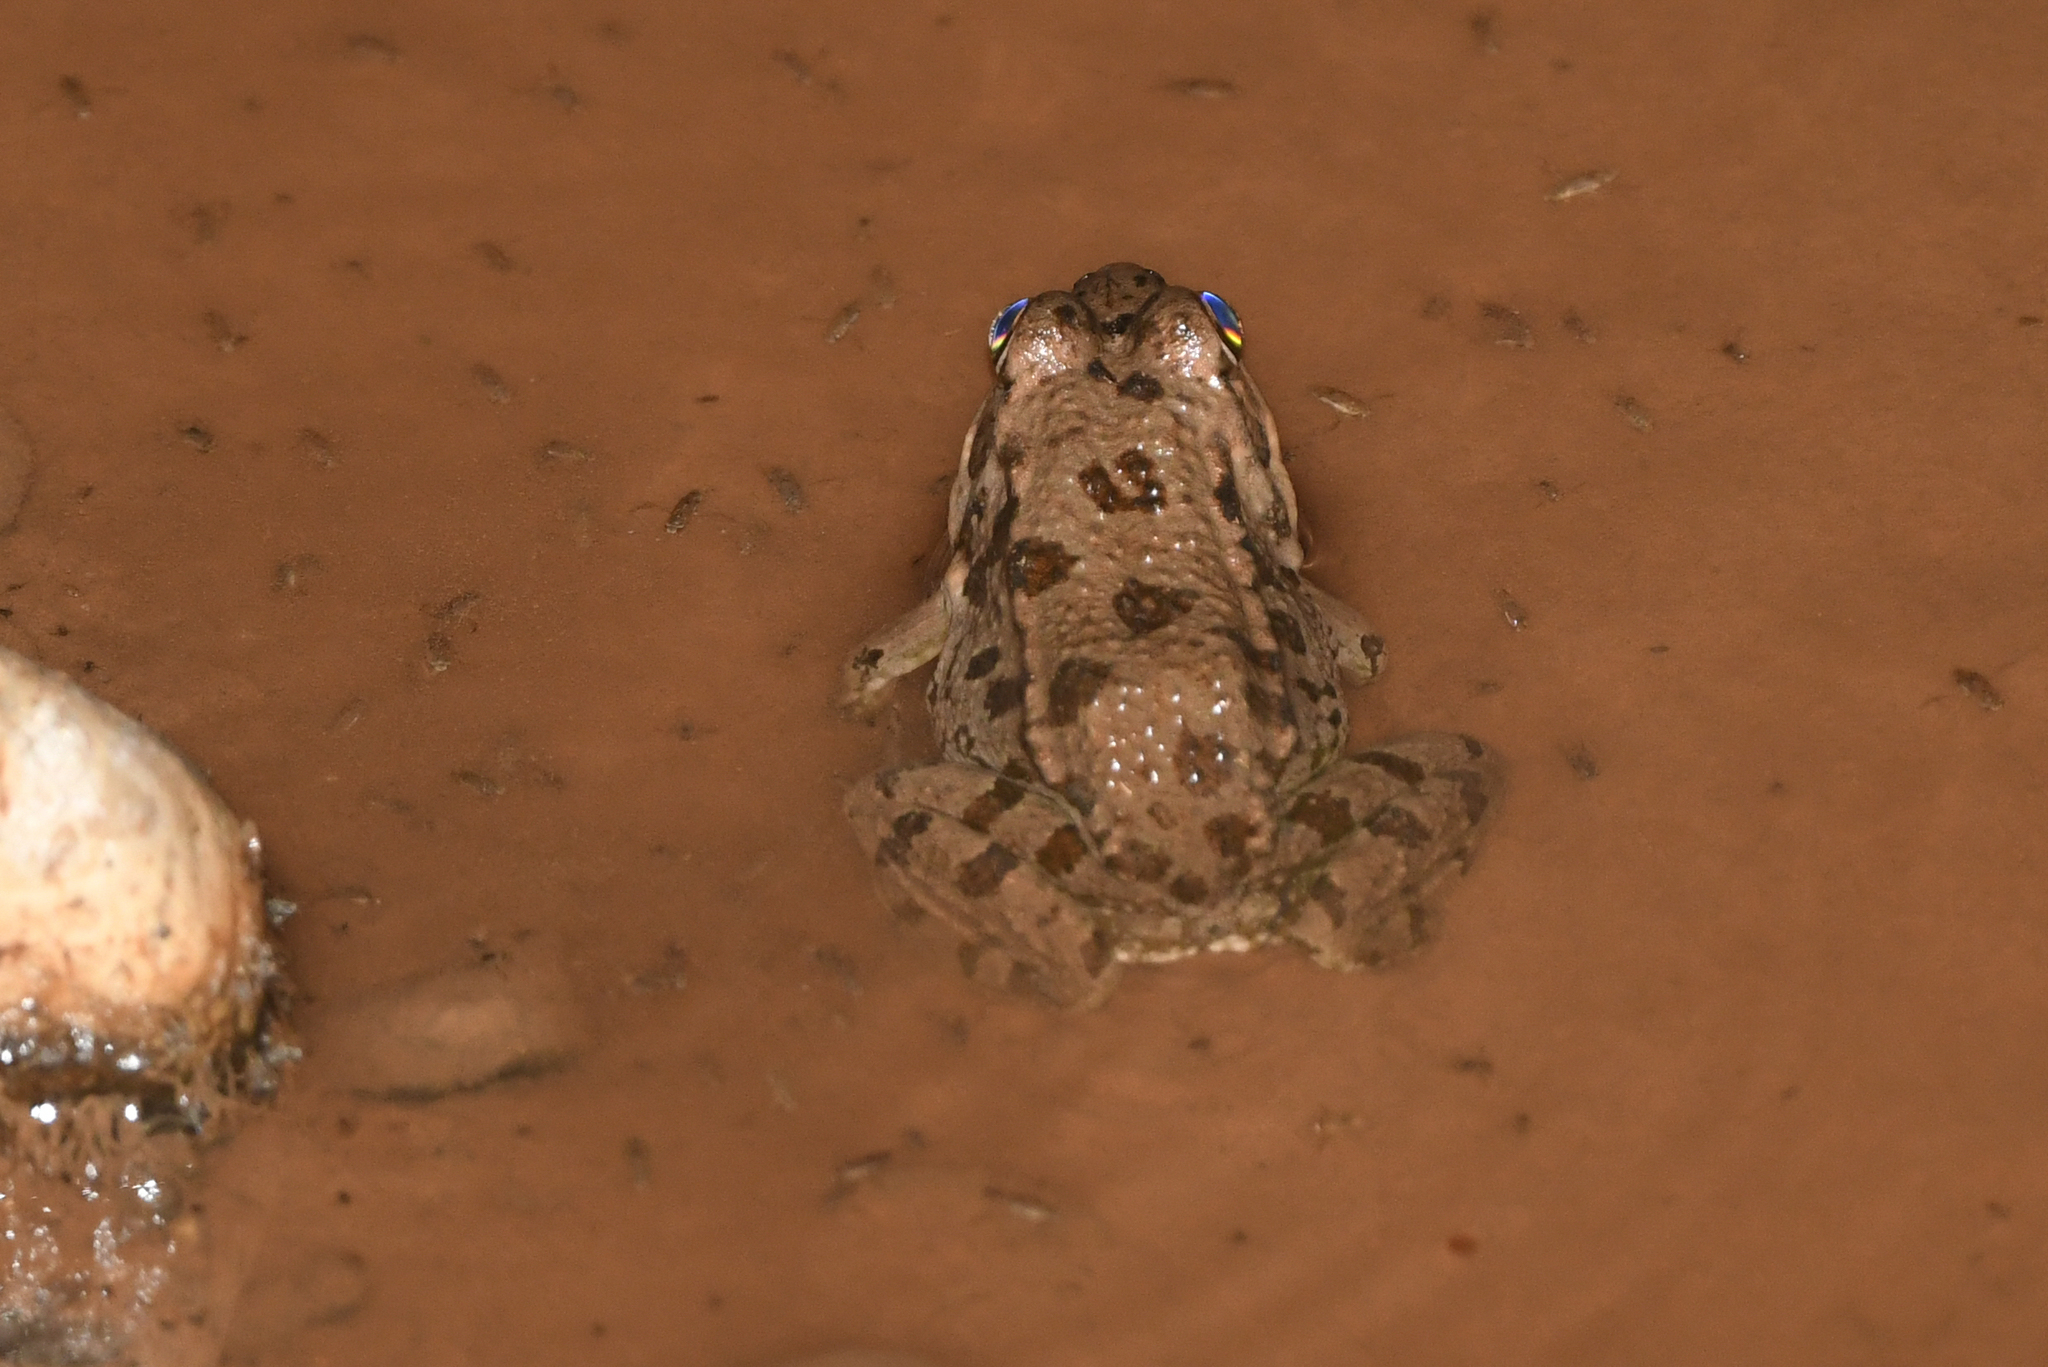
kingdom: Animalia
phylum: Chordata
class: Amphibia
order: Anura
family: Ranidae
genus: Pelophylax
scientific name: Pelophylax saharicus
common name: Sahara frog
